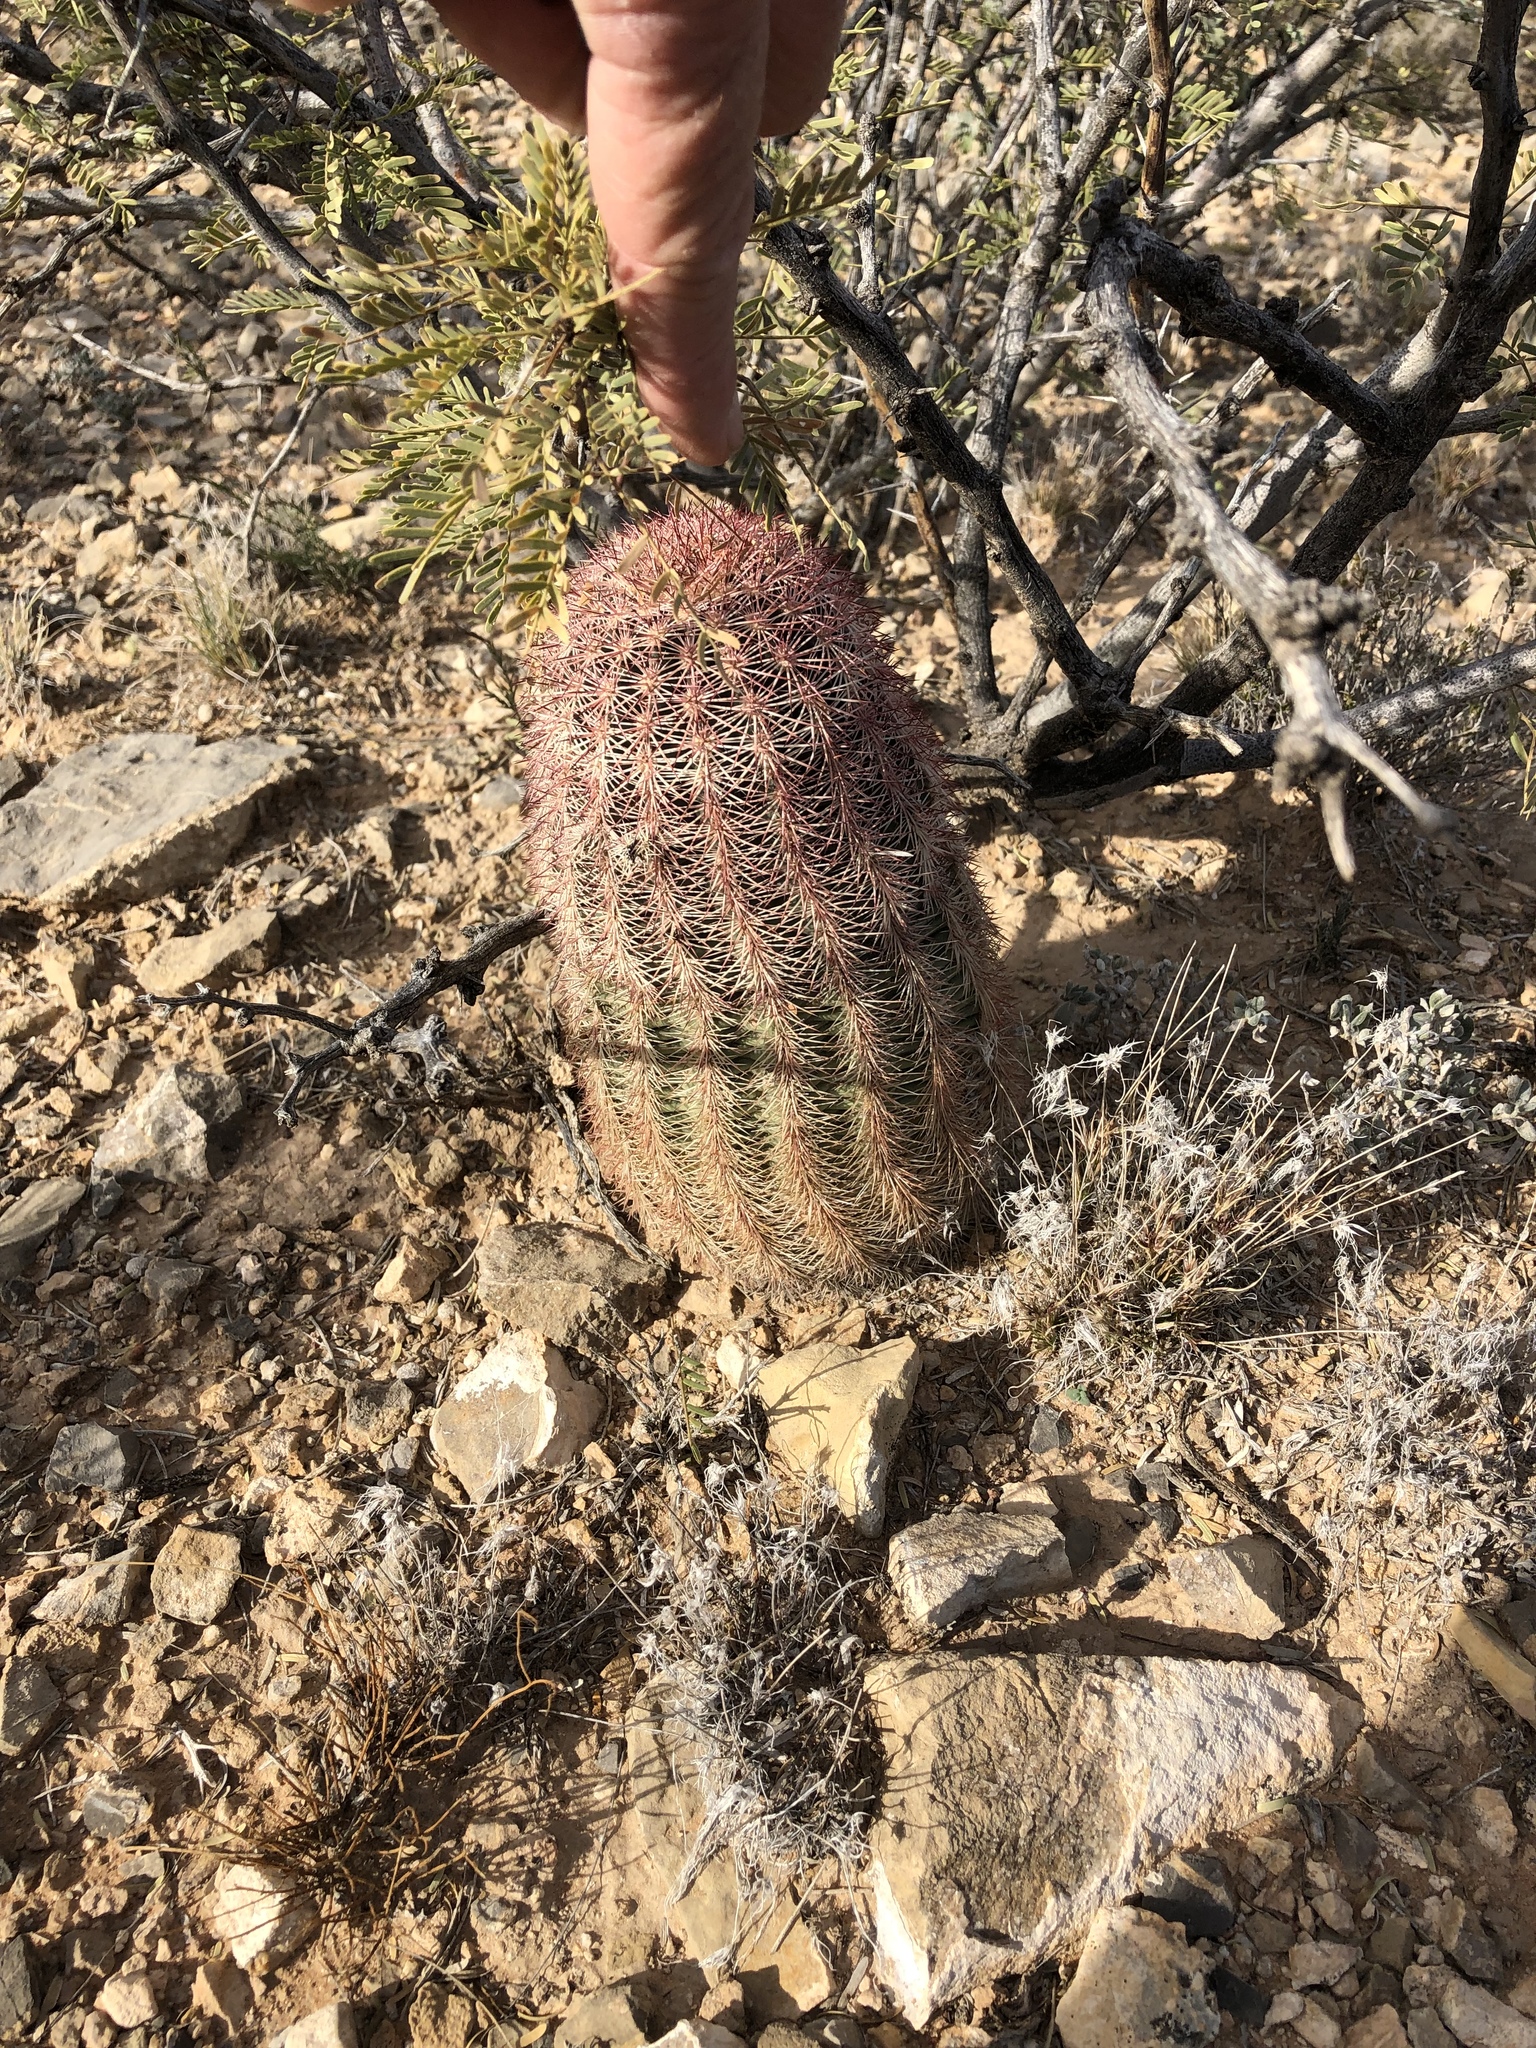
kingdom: Plantae
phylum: Tracheophyta
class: Magnoliopsida
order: Caryophyllales
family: Cactaceae
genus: Echinocereus
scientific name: Echinocereus dasyacanthus
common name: Spiny hedgehog cactus
